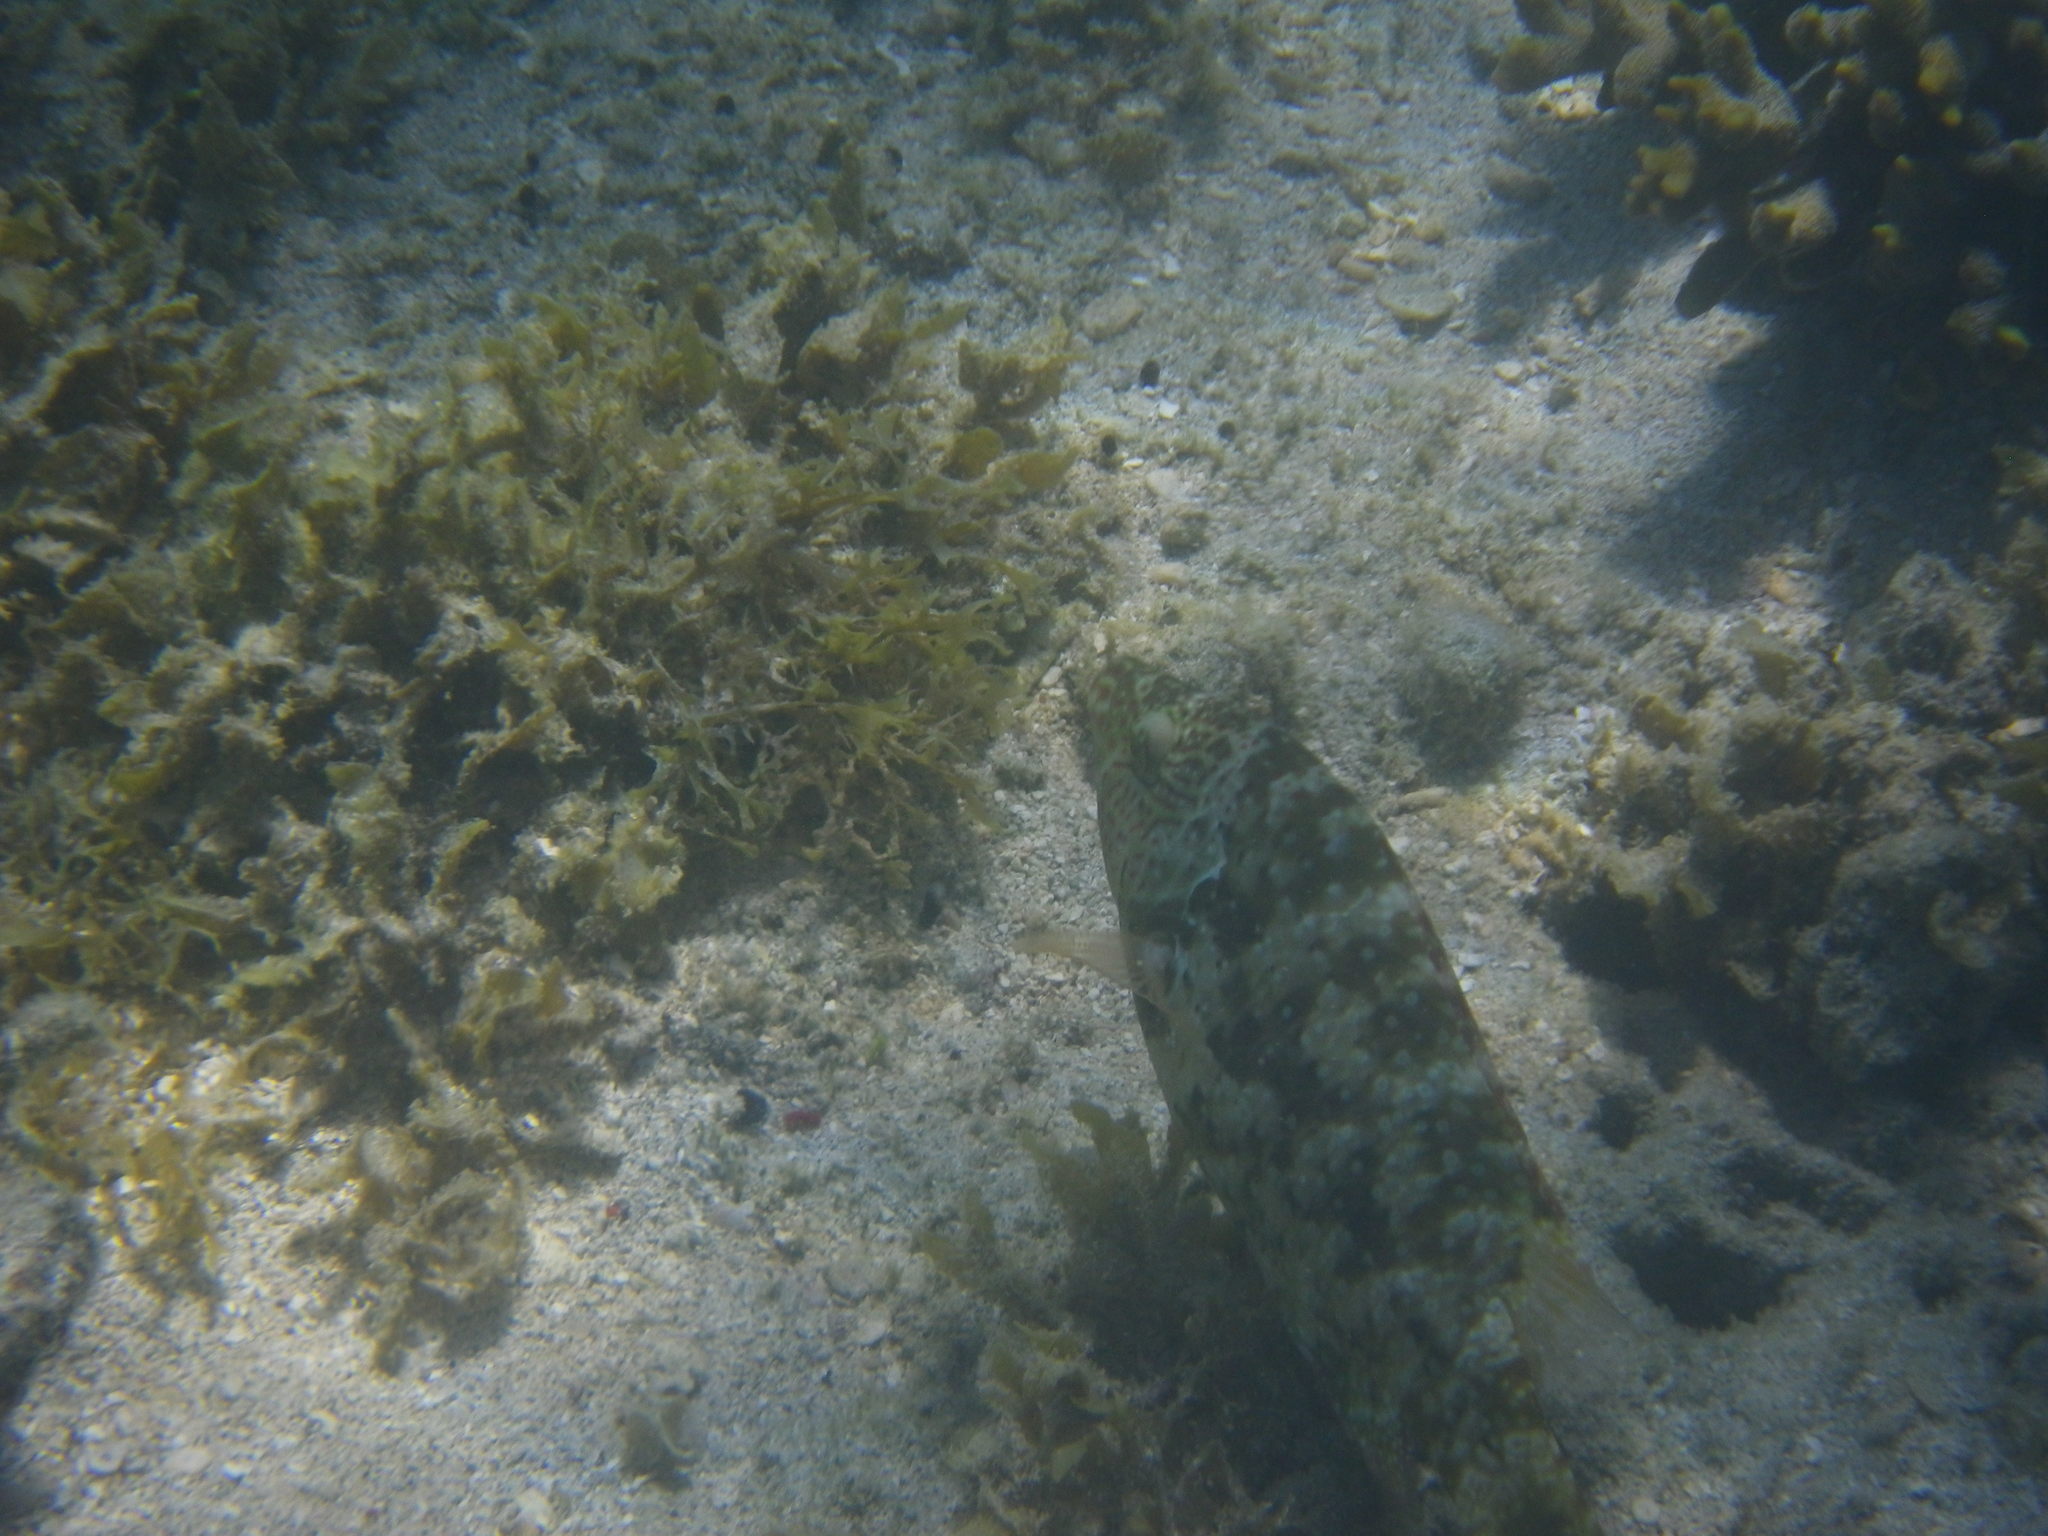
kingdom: Animalia
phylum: Chordata
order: Perciformes
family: Labridae
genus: Cheilinus
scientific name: Cheilinus chlorourus
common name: Floral wrasse
